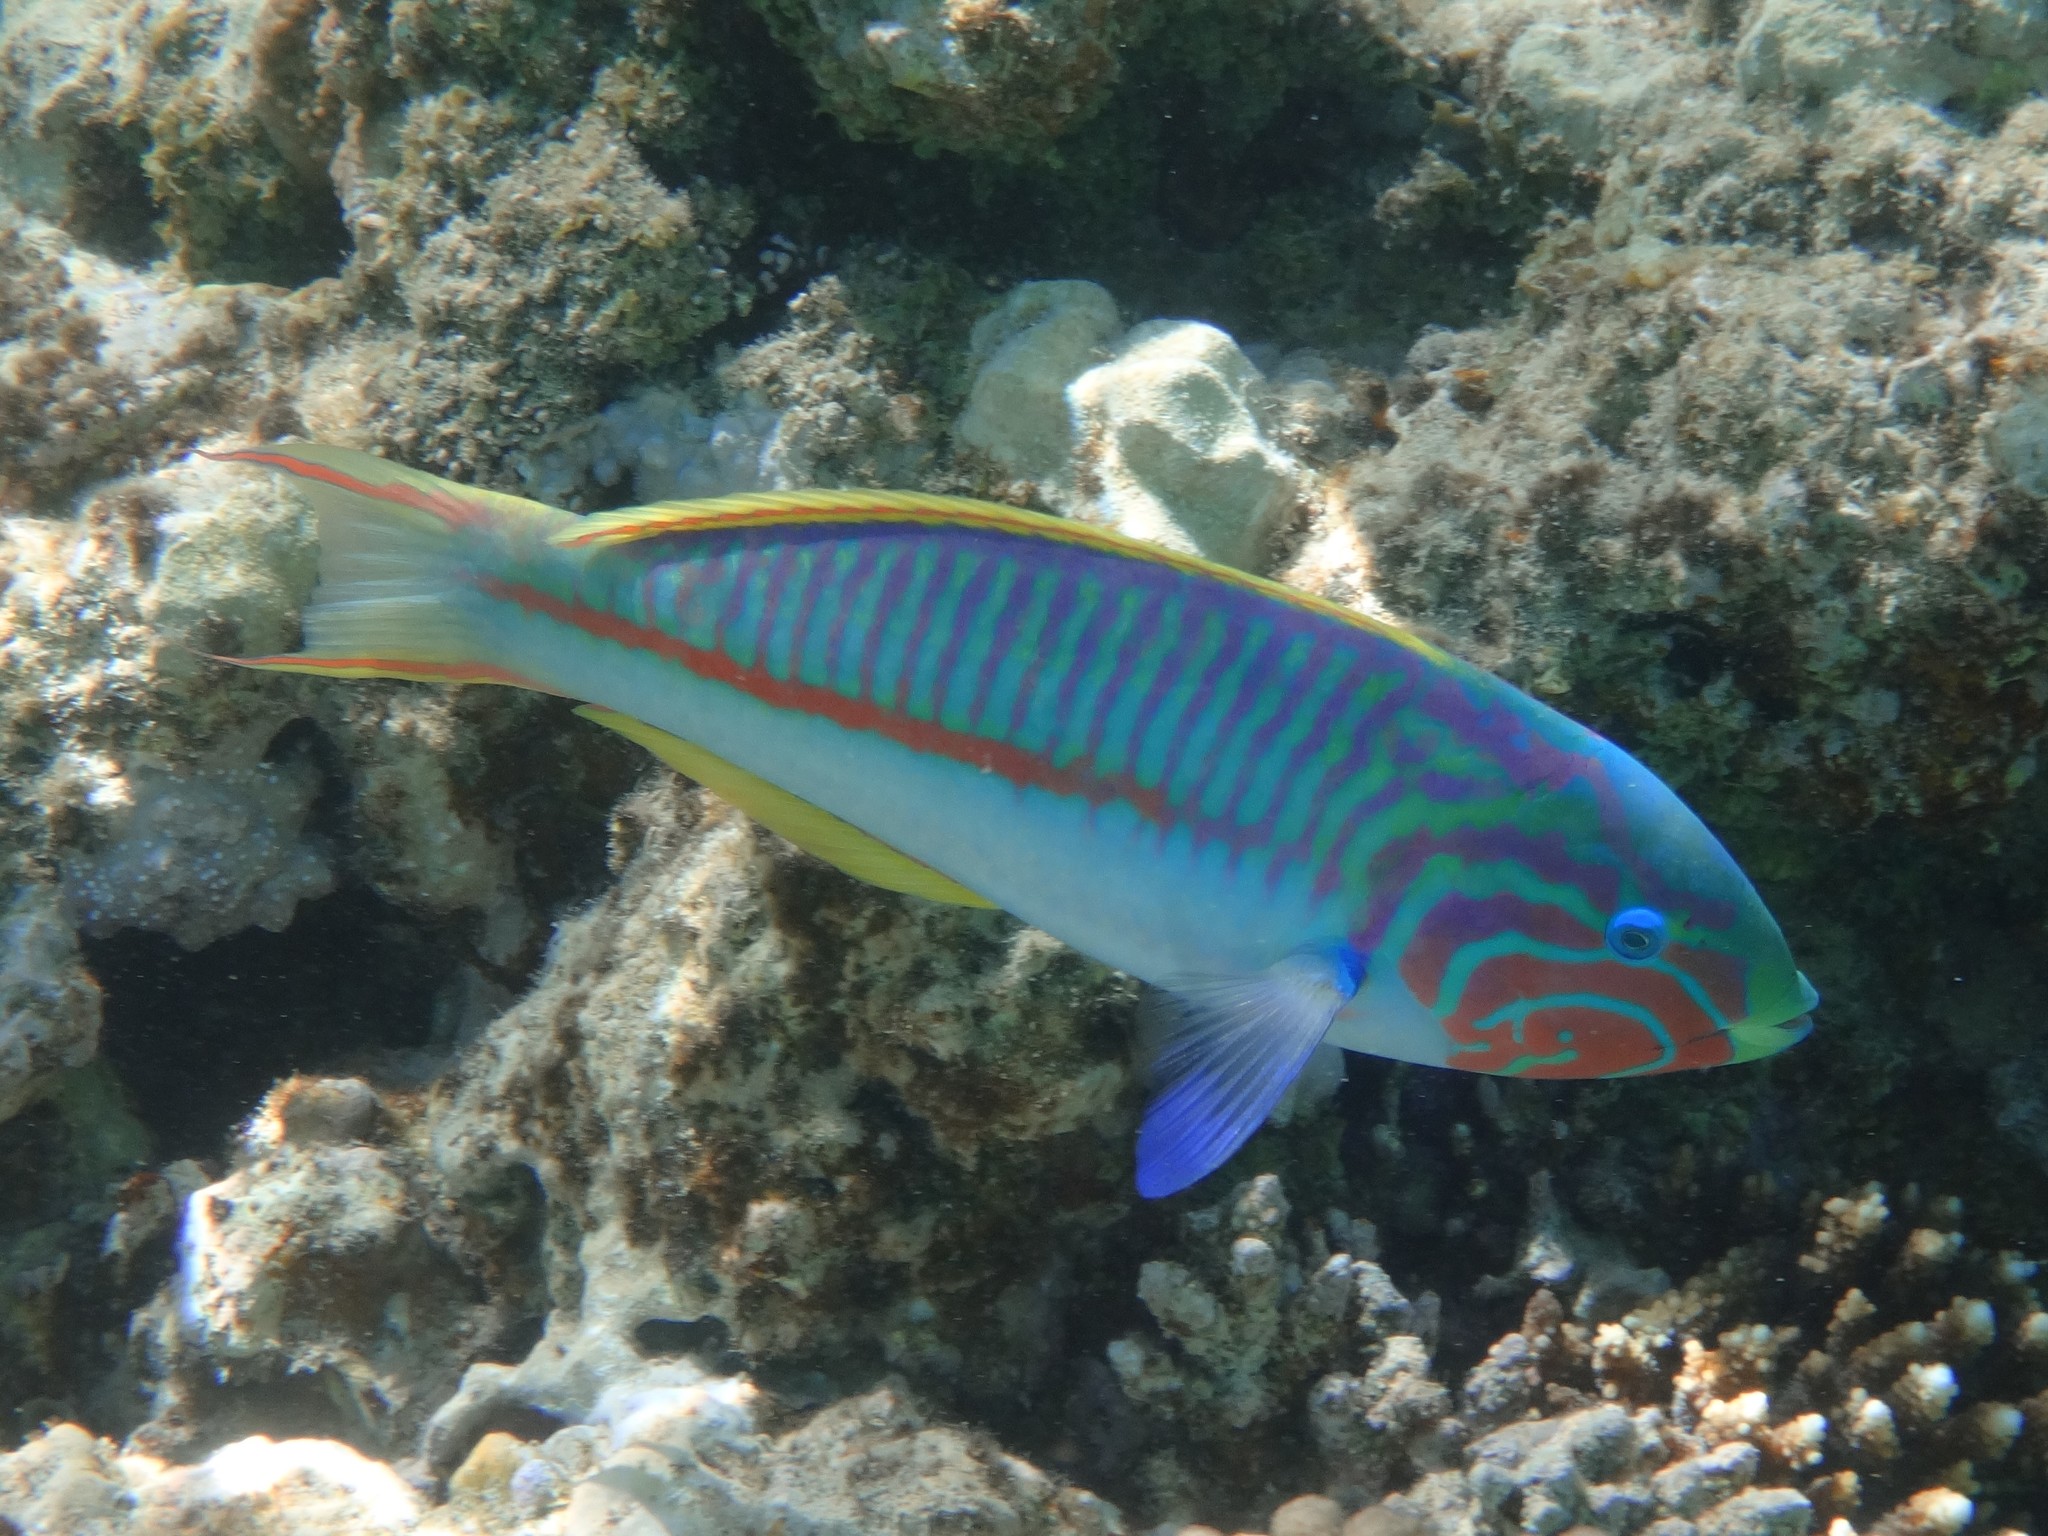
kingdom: Animalia
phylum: Chordata
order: Perciformes
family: Labridae
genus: Thalassoma
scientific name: Thalassoma rueppellii
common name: Klunzinger's wrasse
